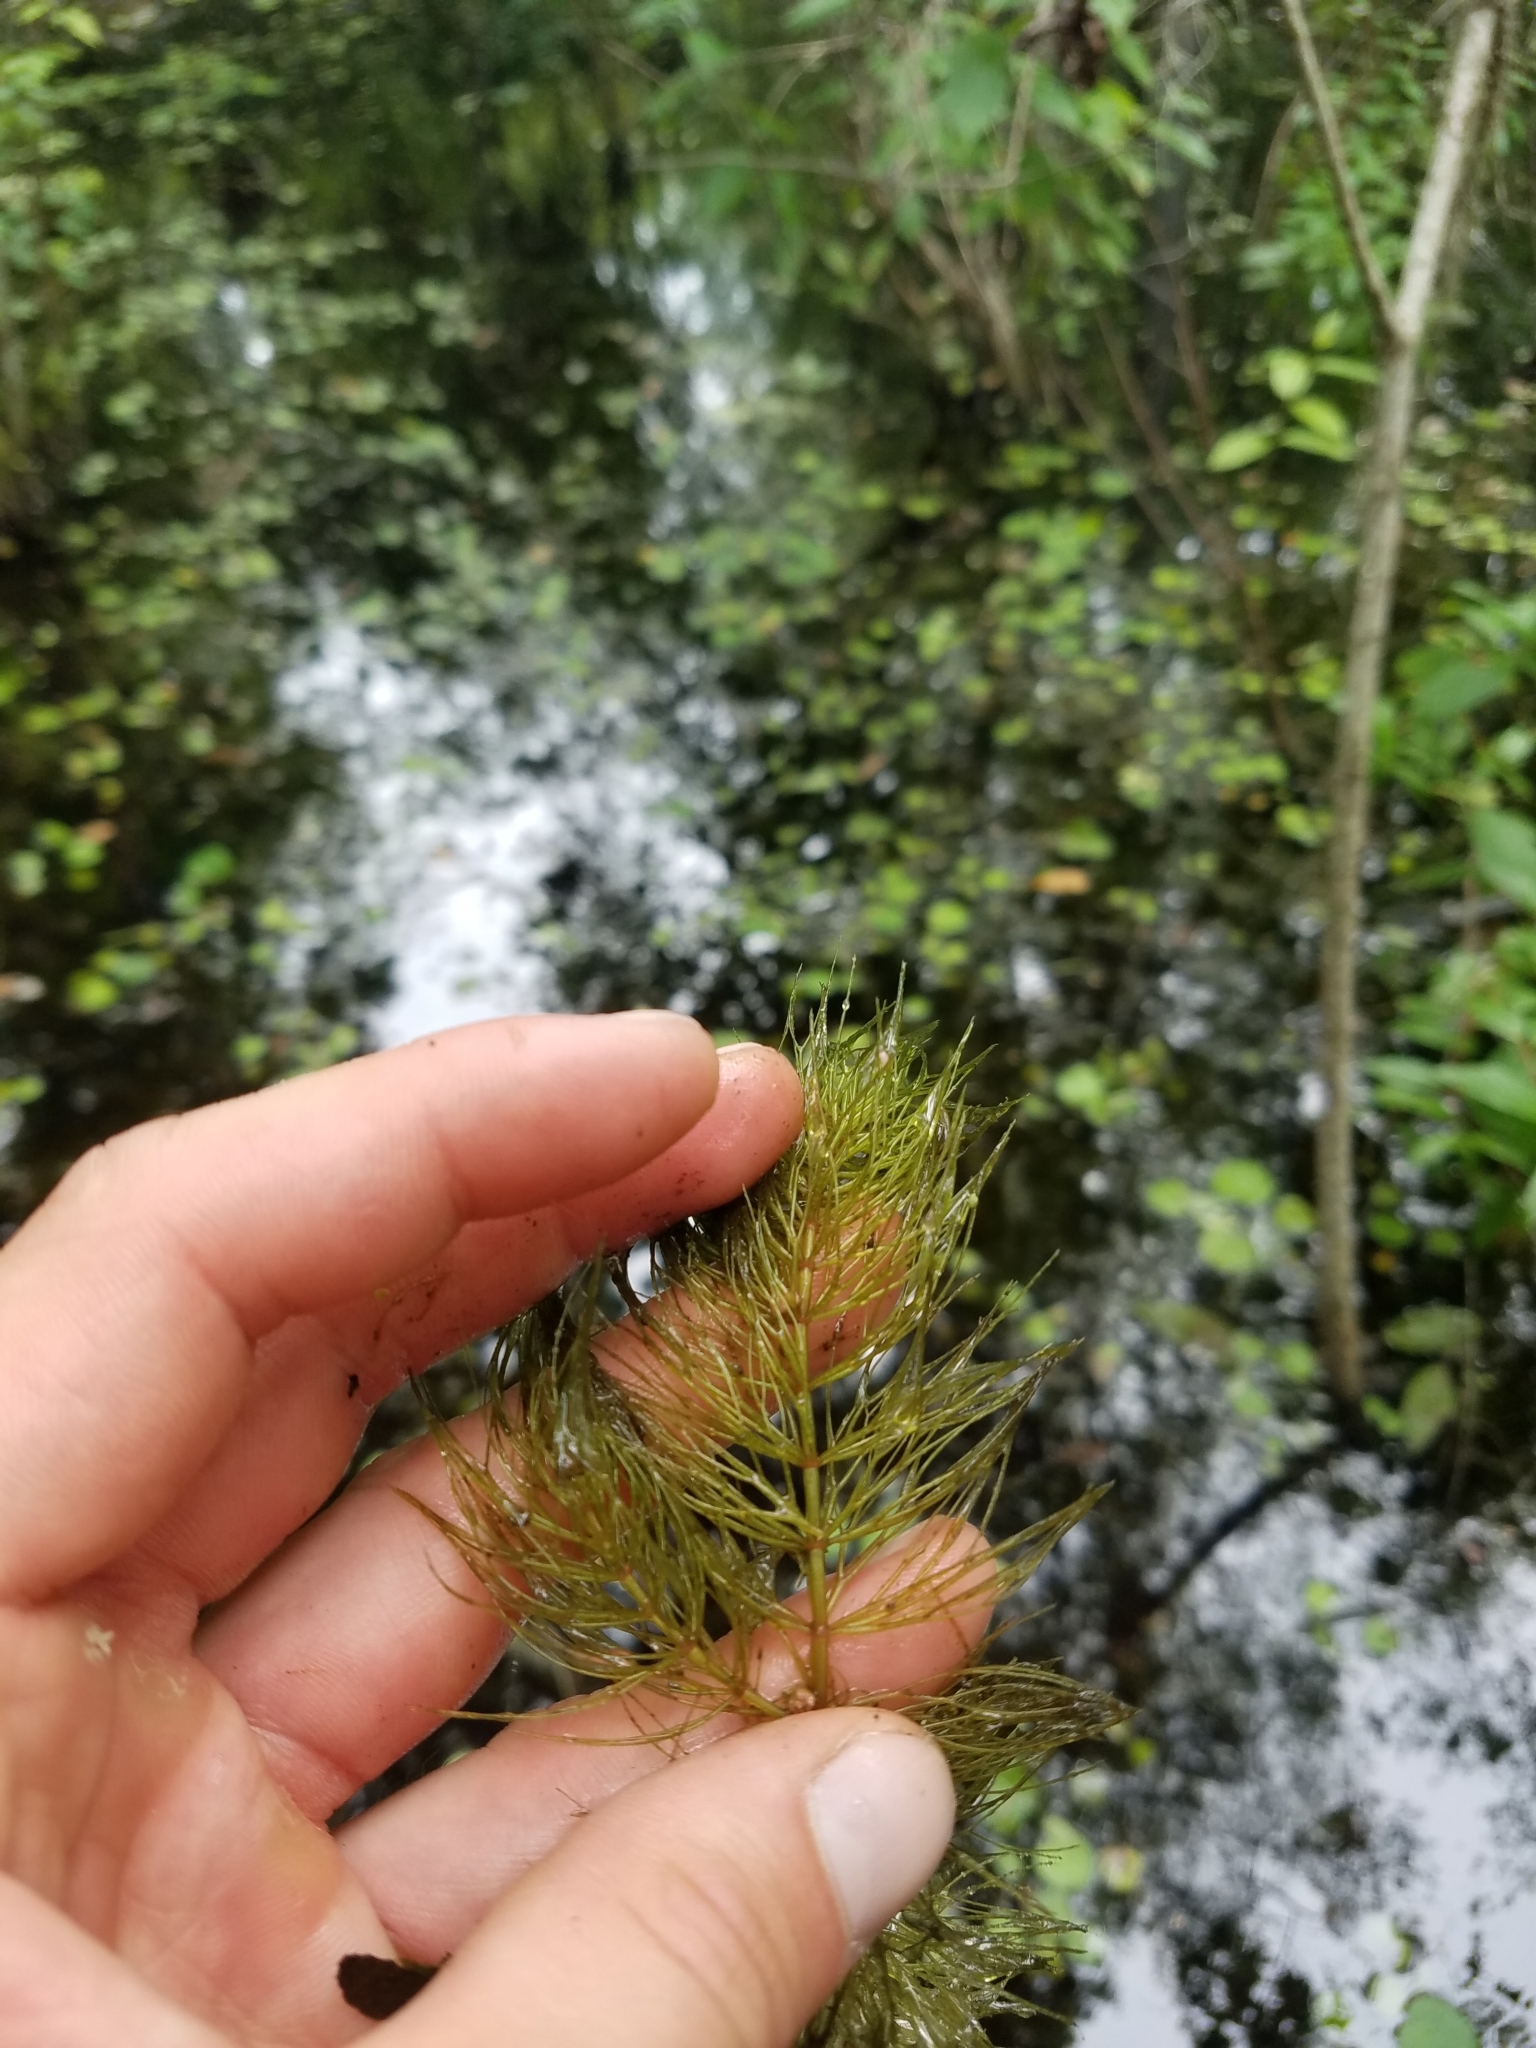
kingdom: Plantae
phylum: Tracheophyta
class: Magnoliopsida
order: Ceratophyllales
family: Ceratophyllaceae
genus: Ceratophyllum
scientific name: Ceratophyllum demersum
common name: Rigid hornwort
